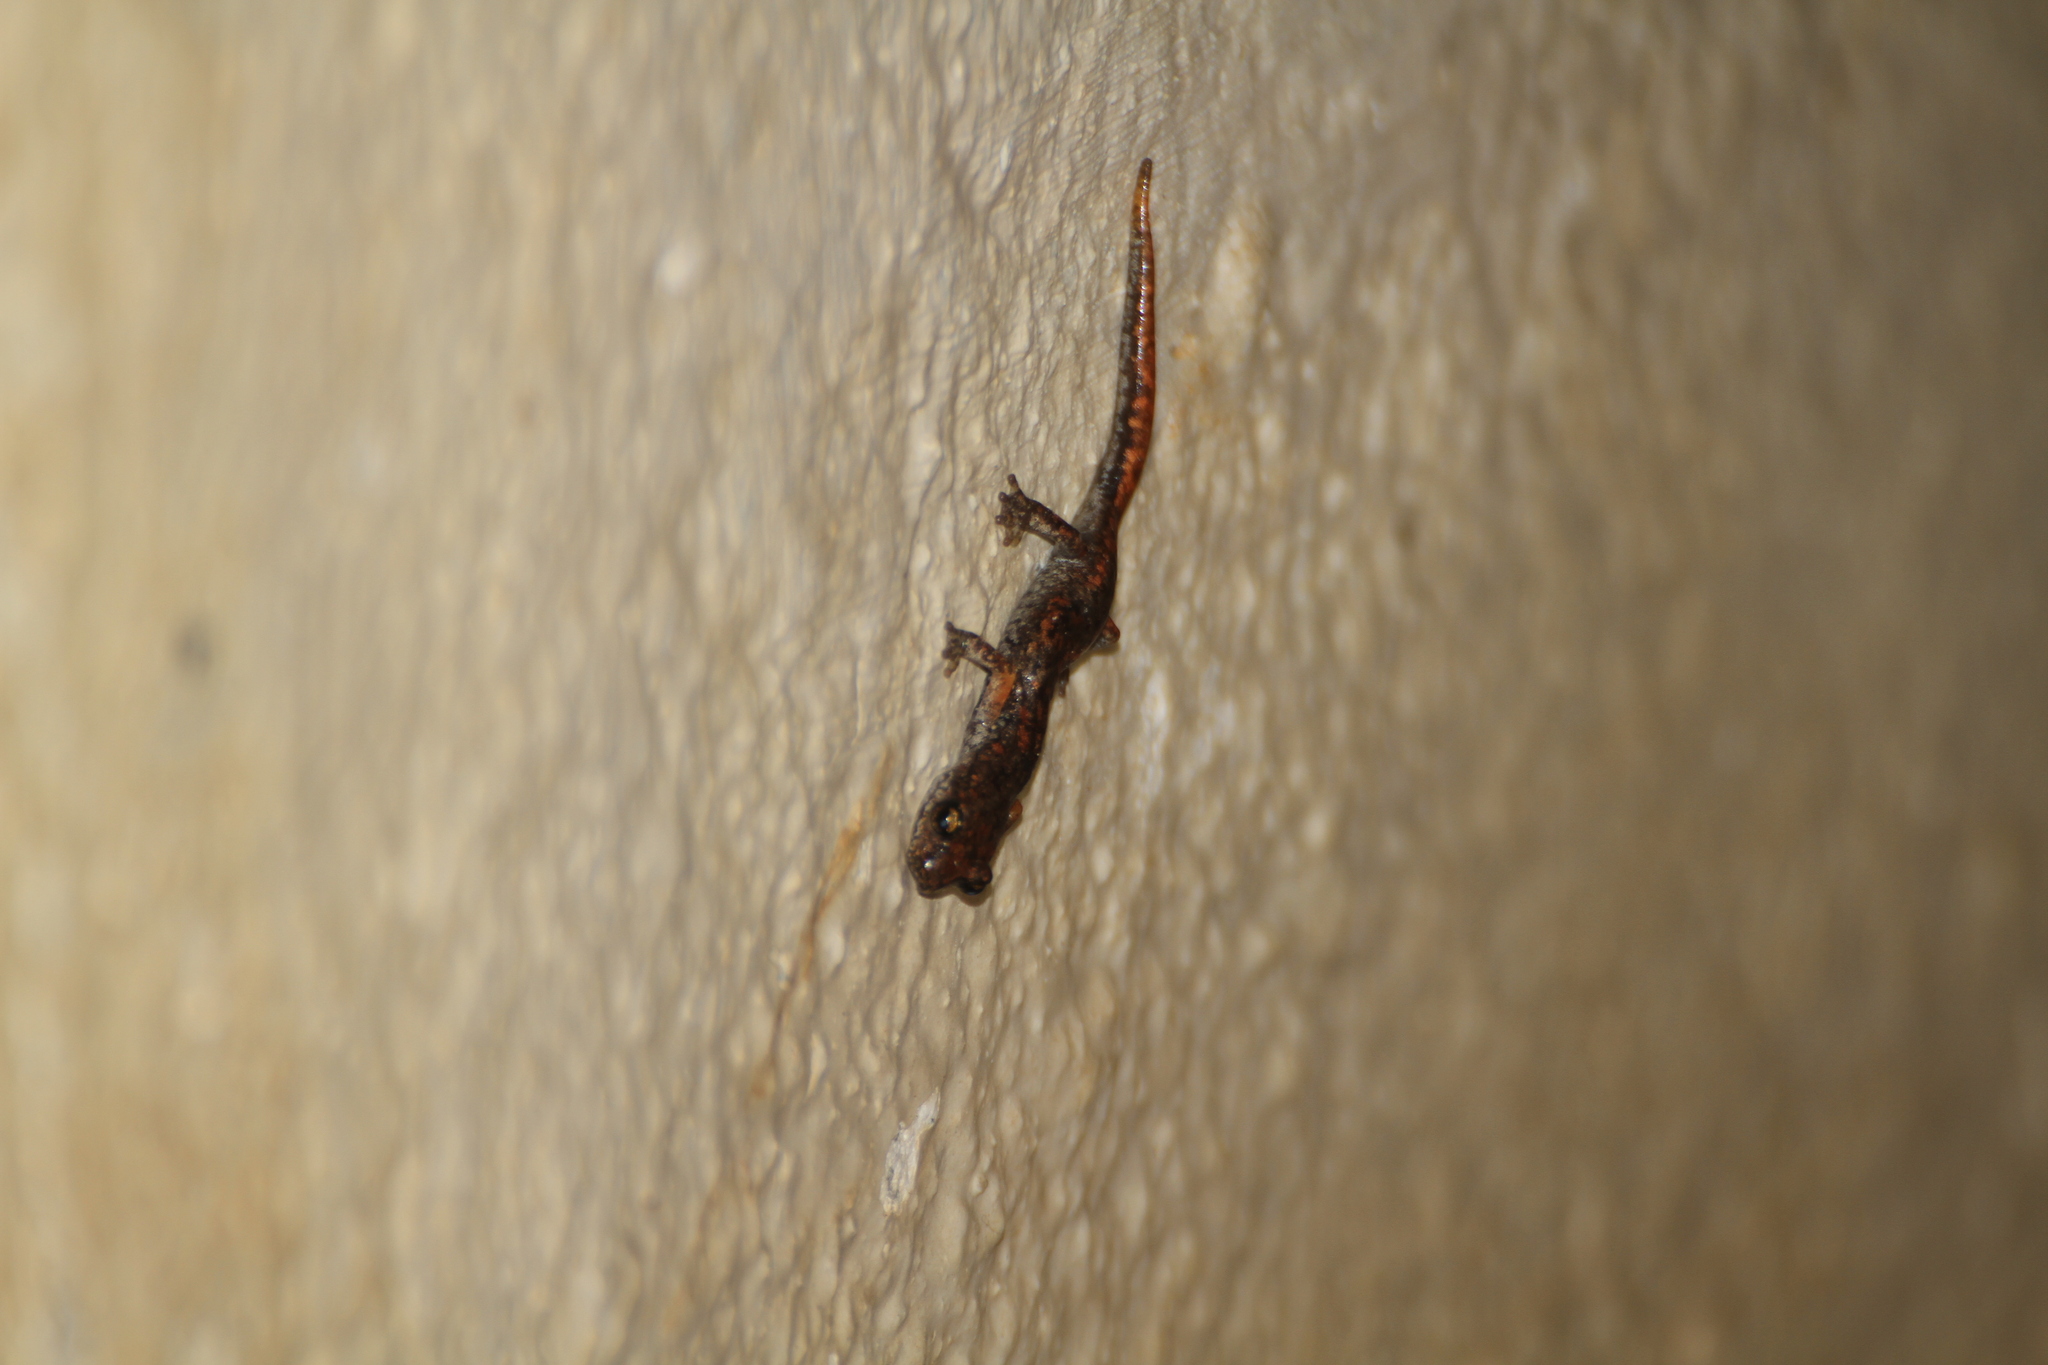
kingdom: Animalia
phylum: Chordata
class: Amphibia
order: Caudata
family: Plethodontidae
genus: Speleomantes
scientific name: Speleomantes strinatii
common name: French cave salamander
